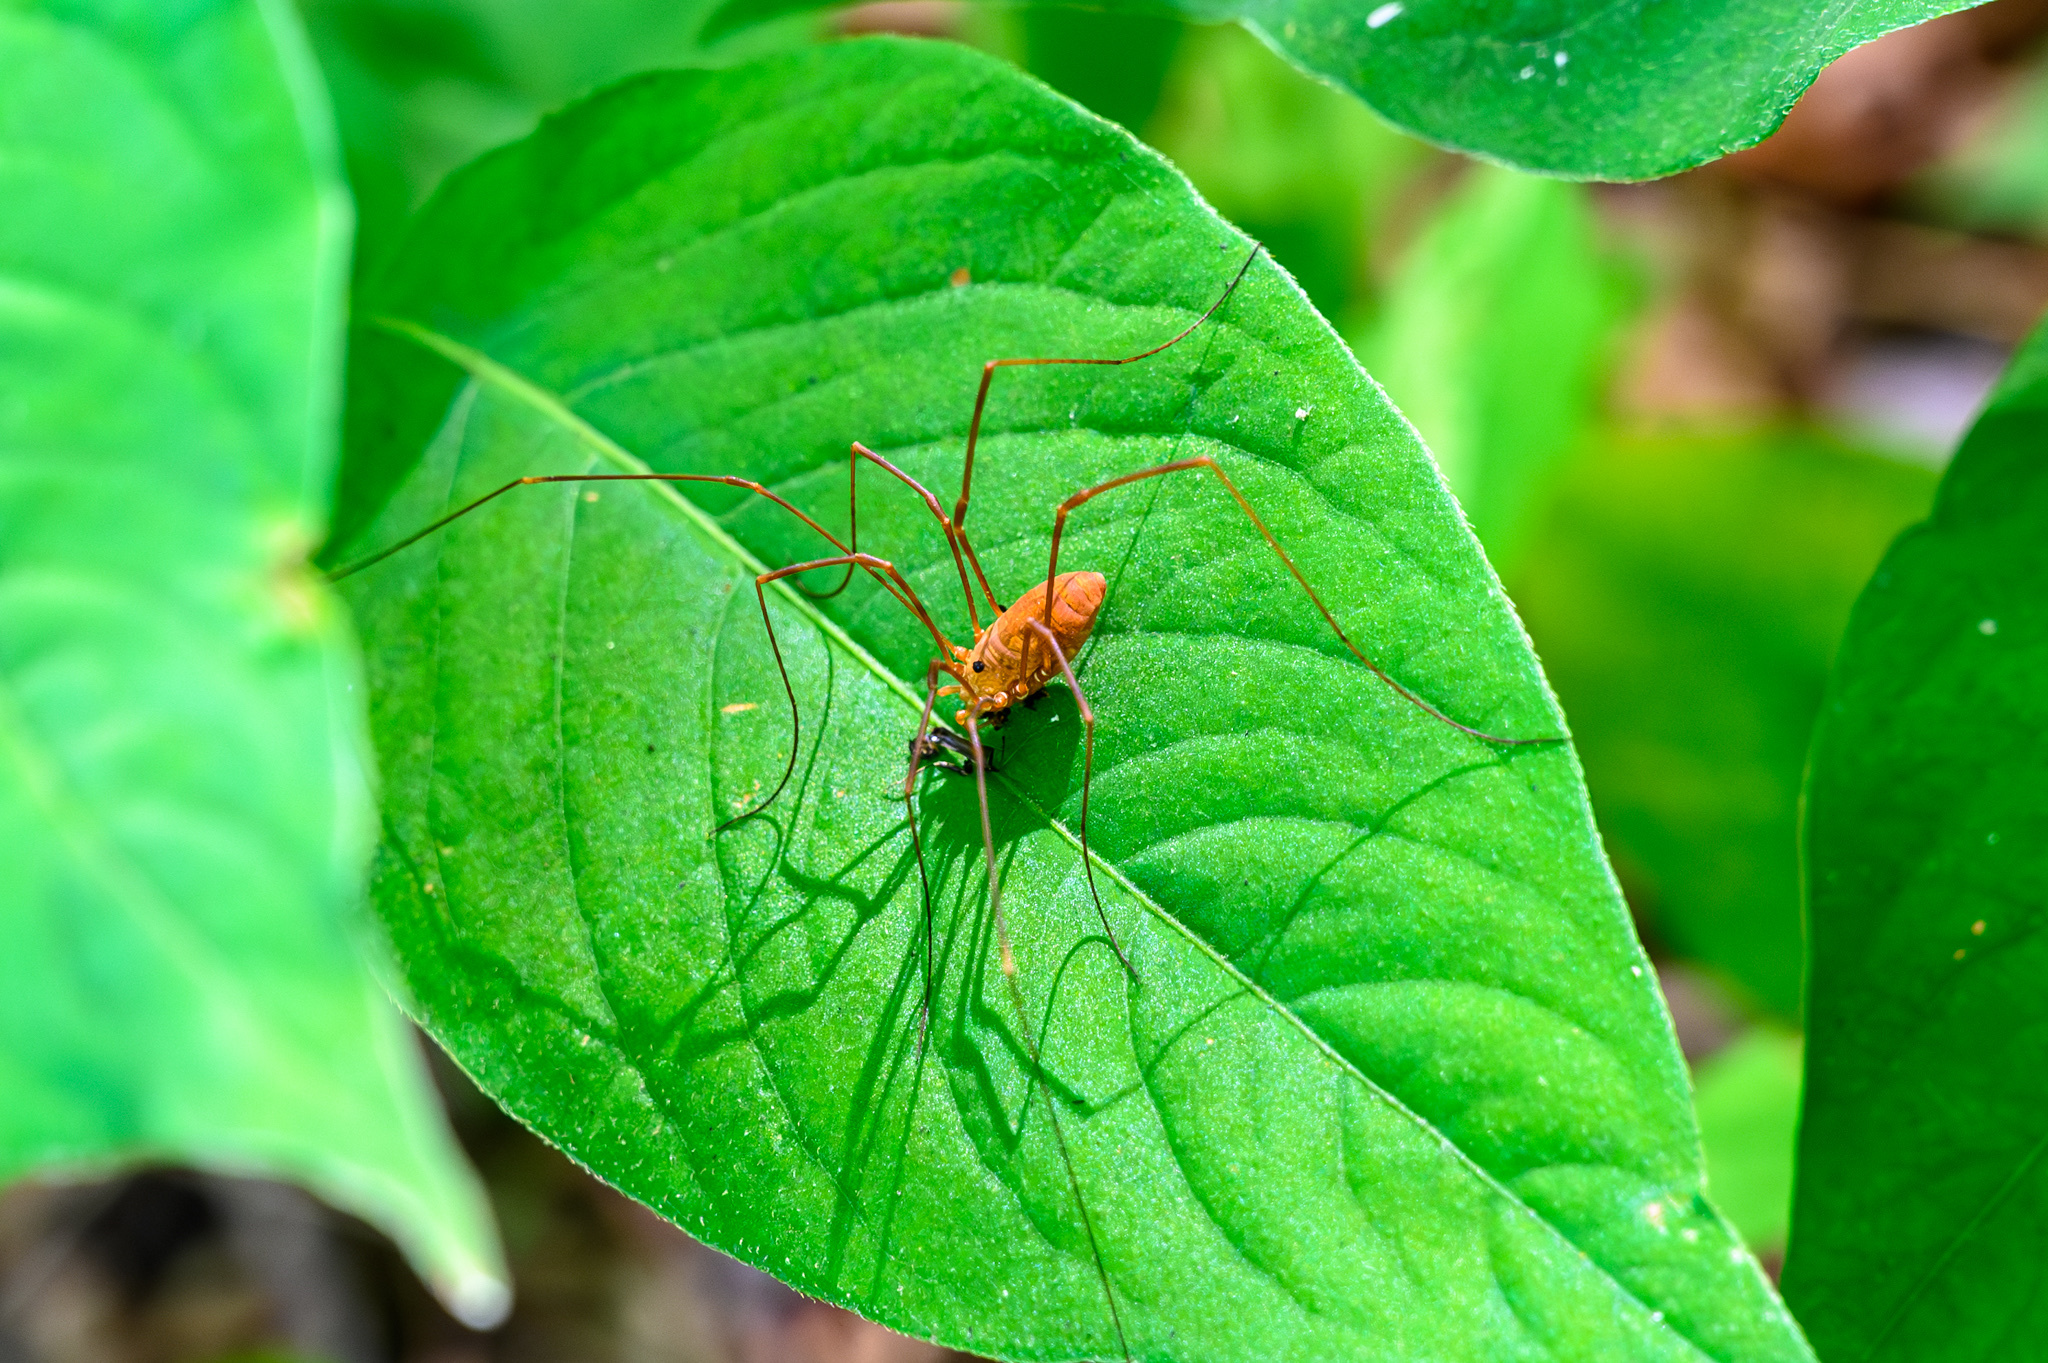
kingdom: Animalia
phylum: Arthropoda
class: Arachnida
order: Opiliones
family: Sclerosomatidae
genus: Leiobunum
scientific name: Leiobunum ventricosum
